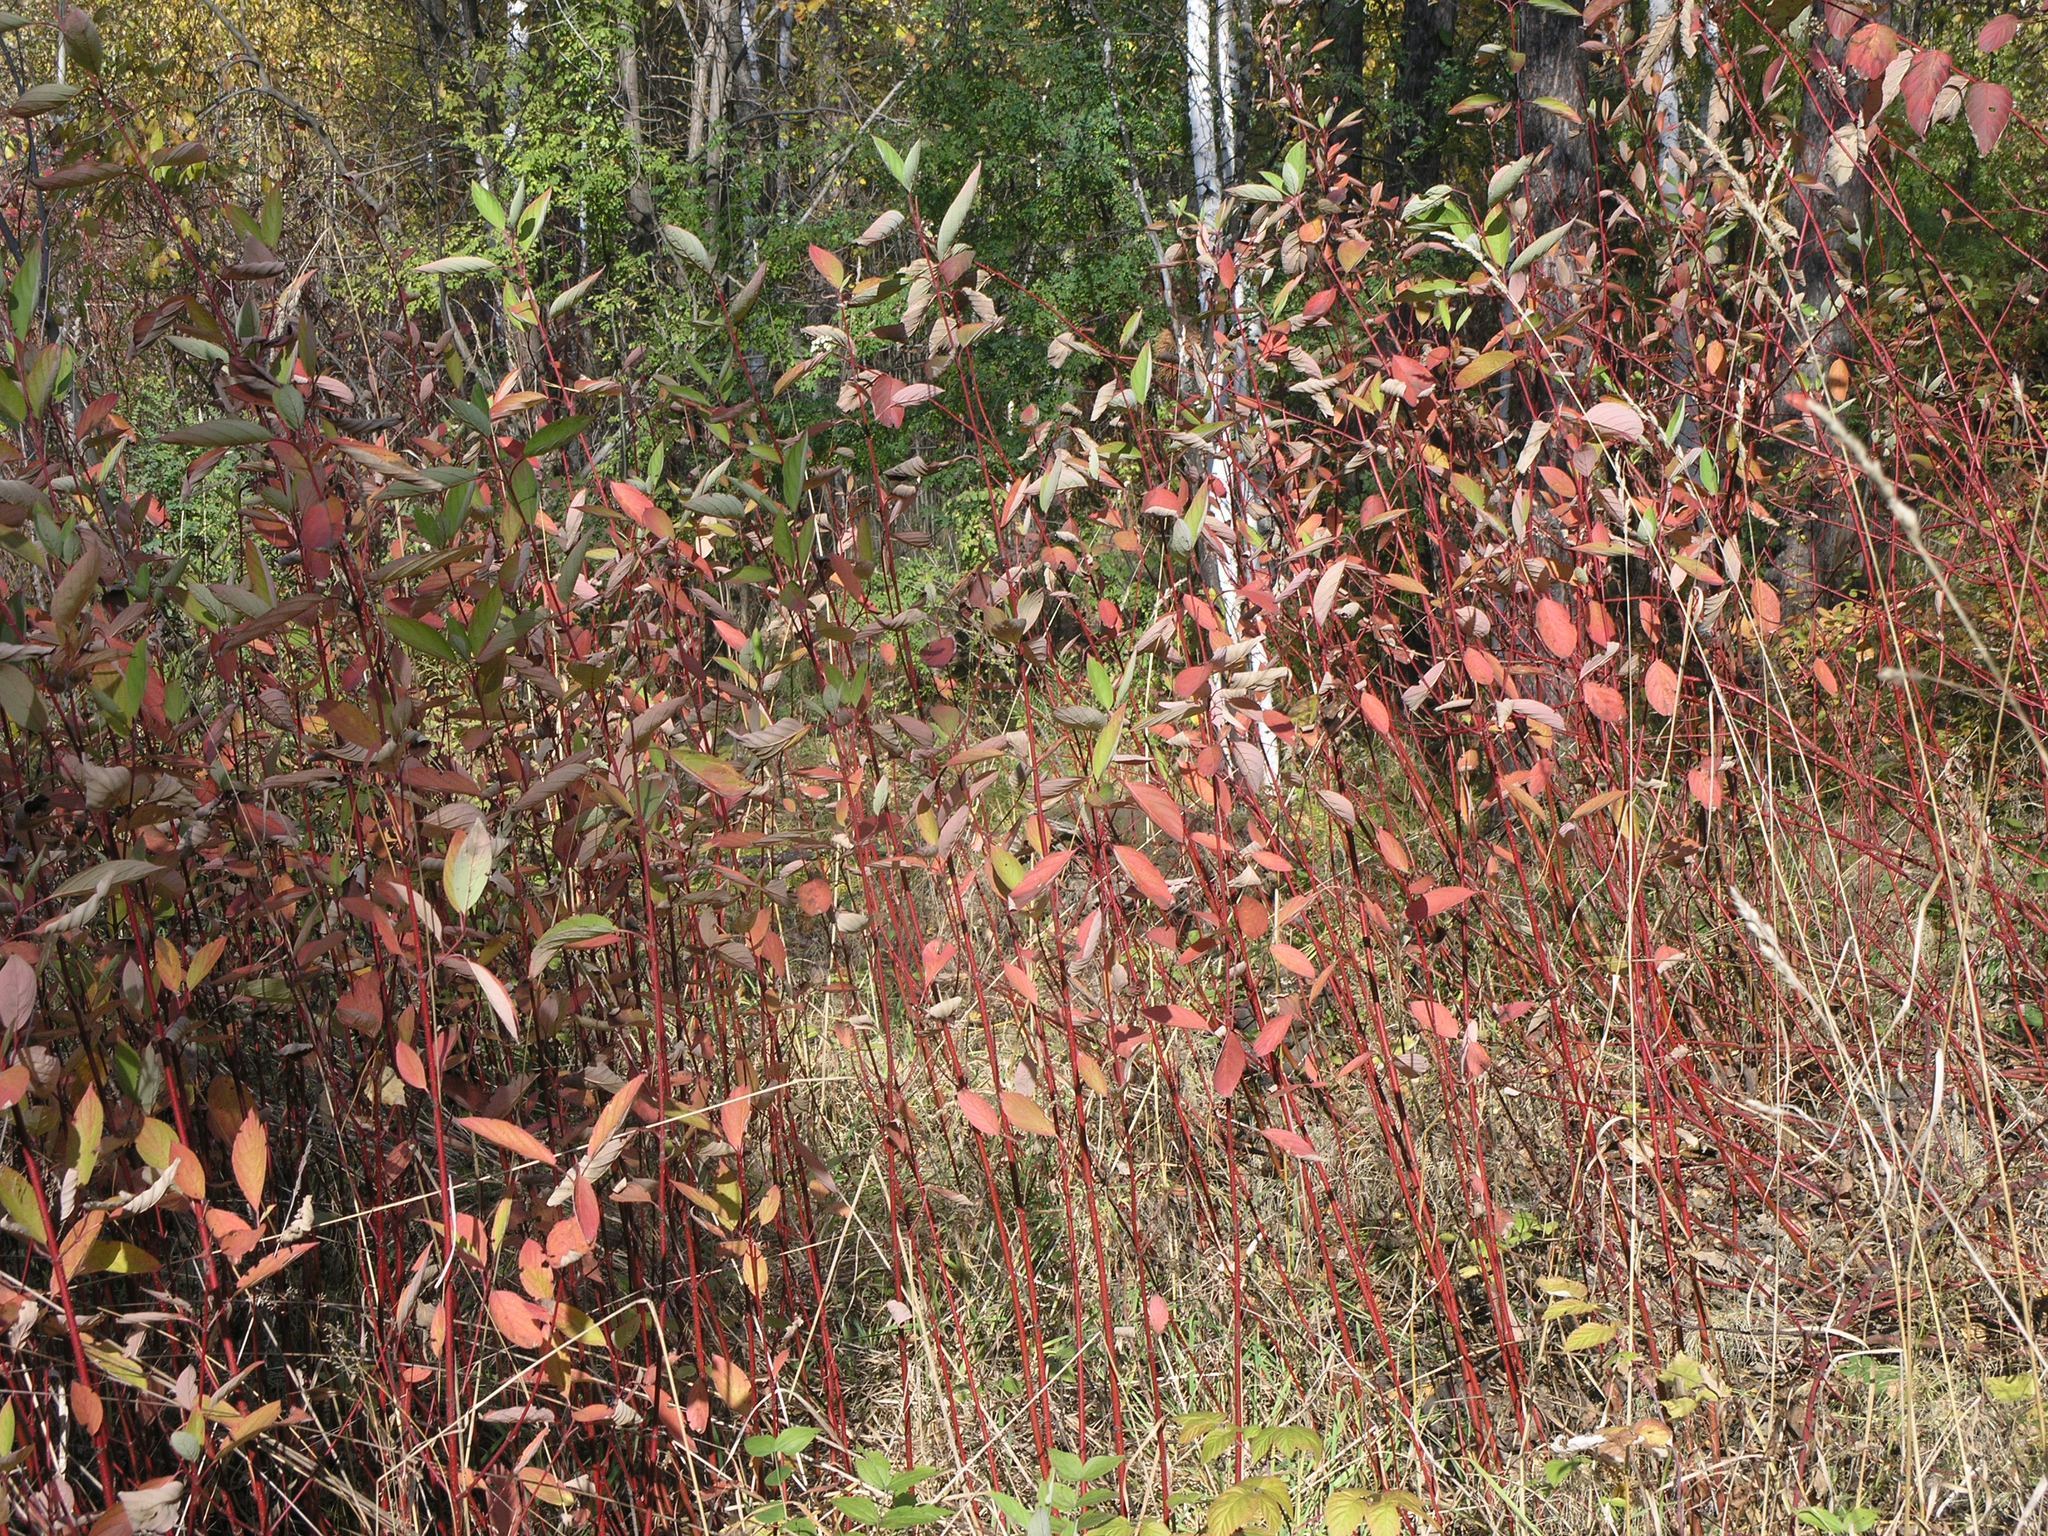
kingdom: Plantae
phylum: Tracheophyta
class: Magnoliopsida
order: Cornales
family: Cornaceae
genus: Cornus
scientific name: Cornus alba
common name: White dogwood
